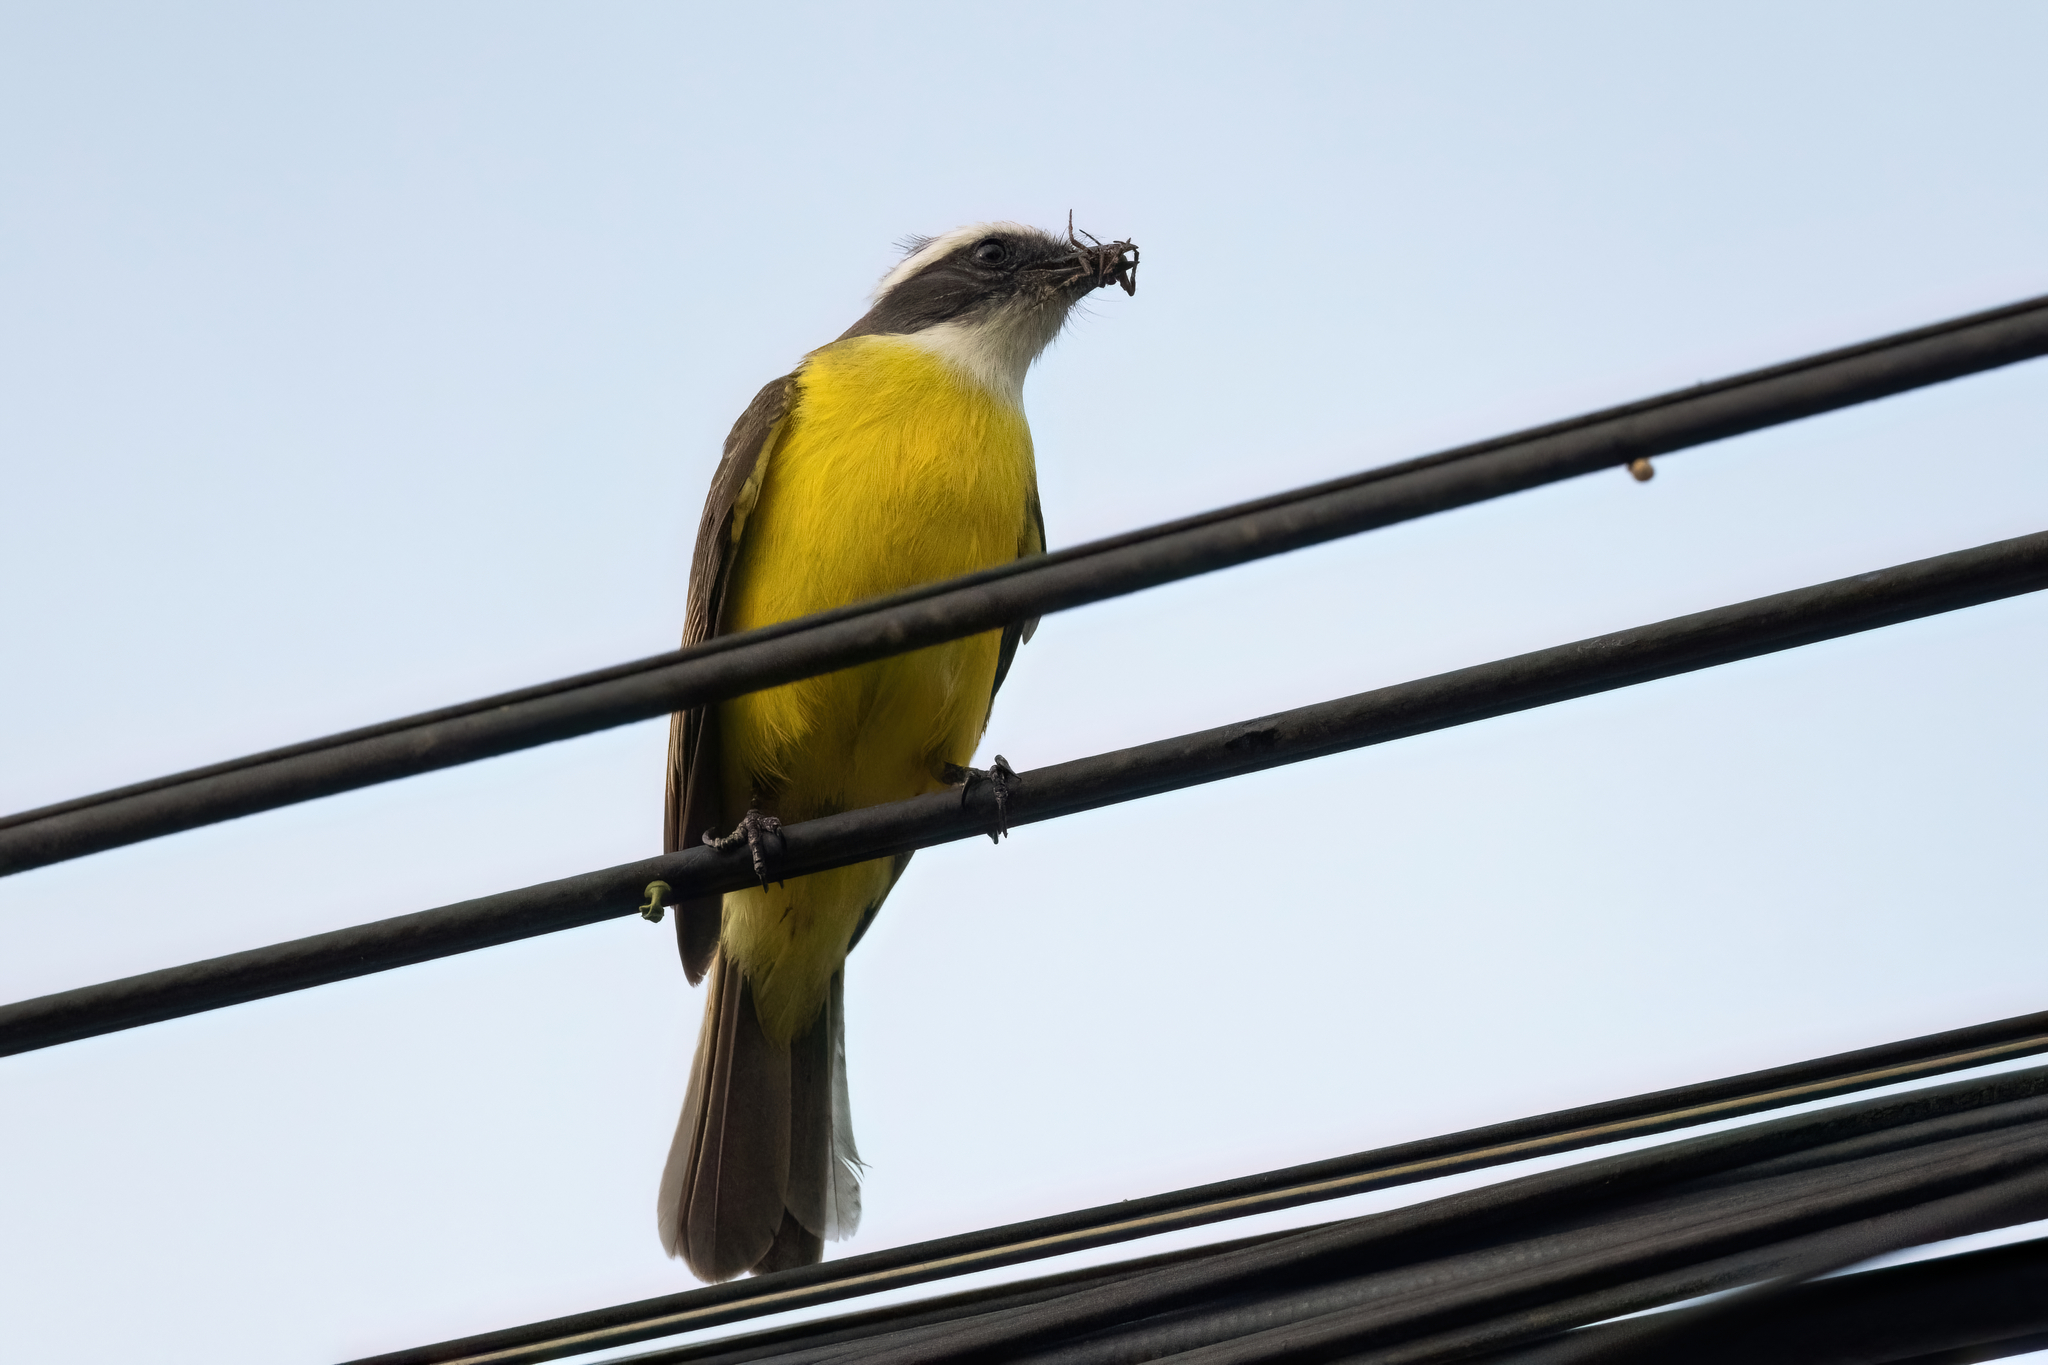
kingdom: Animalia
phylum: Chordata
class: Aves
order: Passeriformes
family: Tyrannidae
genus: Myiozetetes
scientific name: Myiozetetes similis
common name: Social flycatcher
